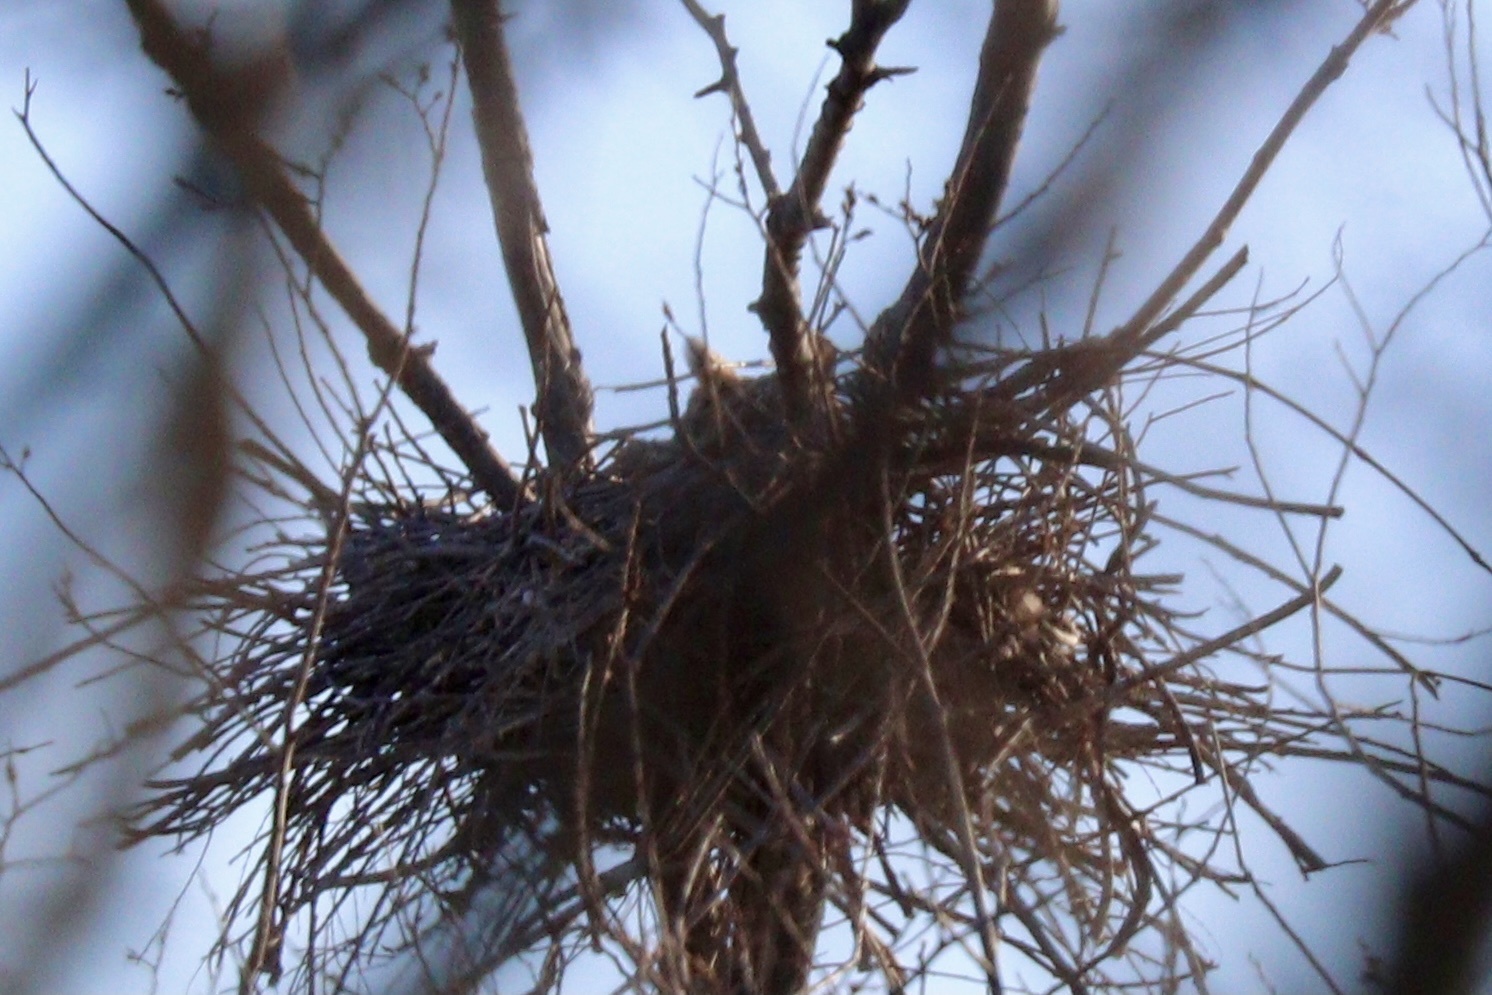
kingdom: Animalia
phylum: Chordata
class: Aves
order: Strigiformes
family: Strigidae
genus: Bubo
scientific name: Bubo virginianus
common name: Great horned owl
